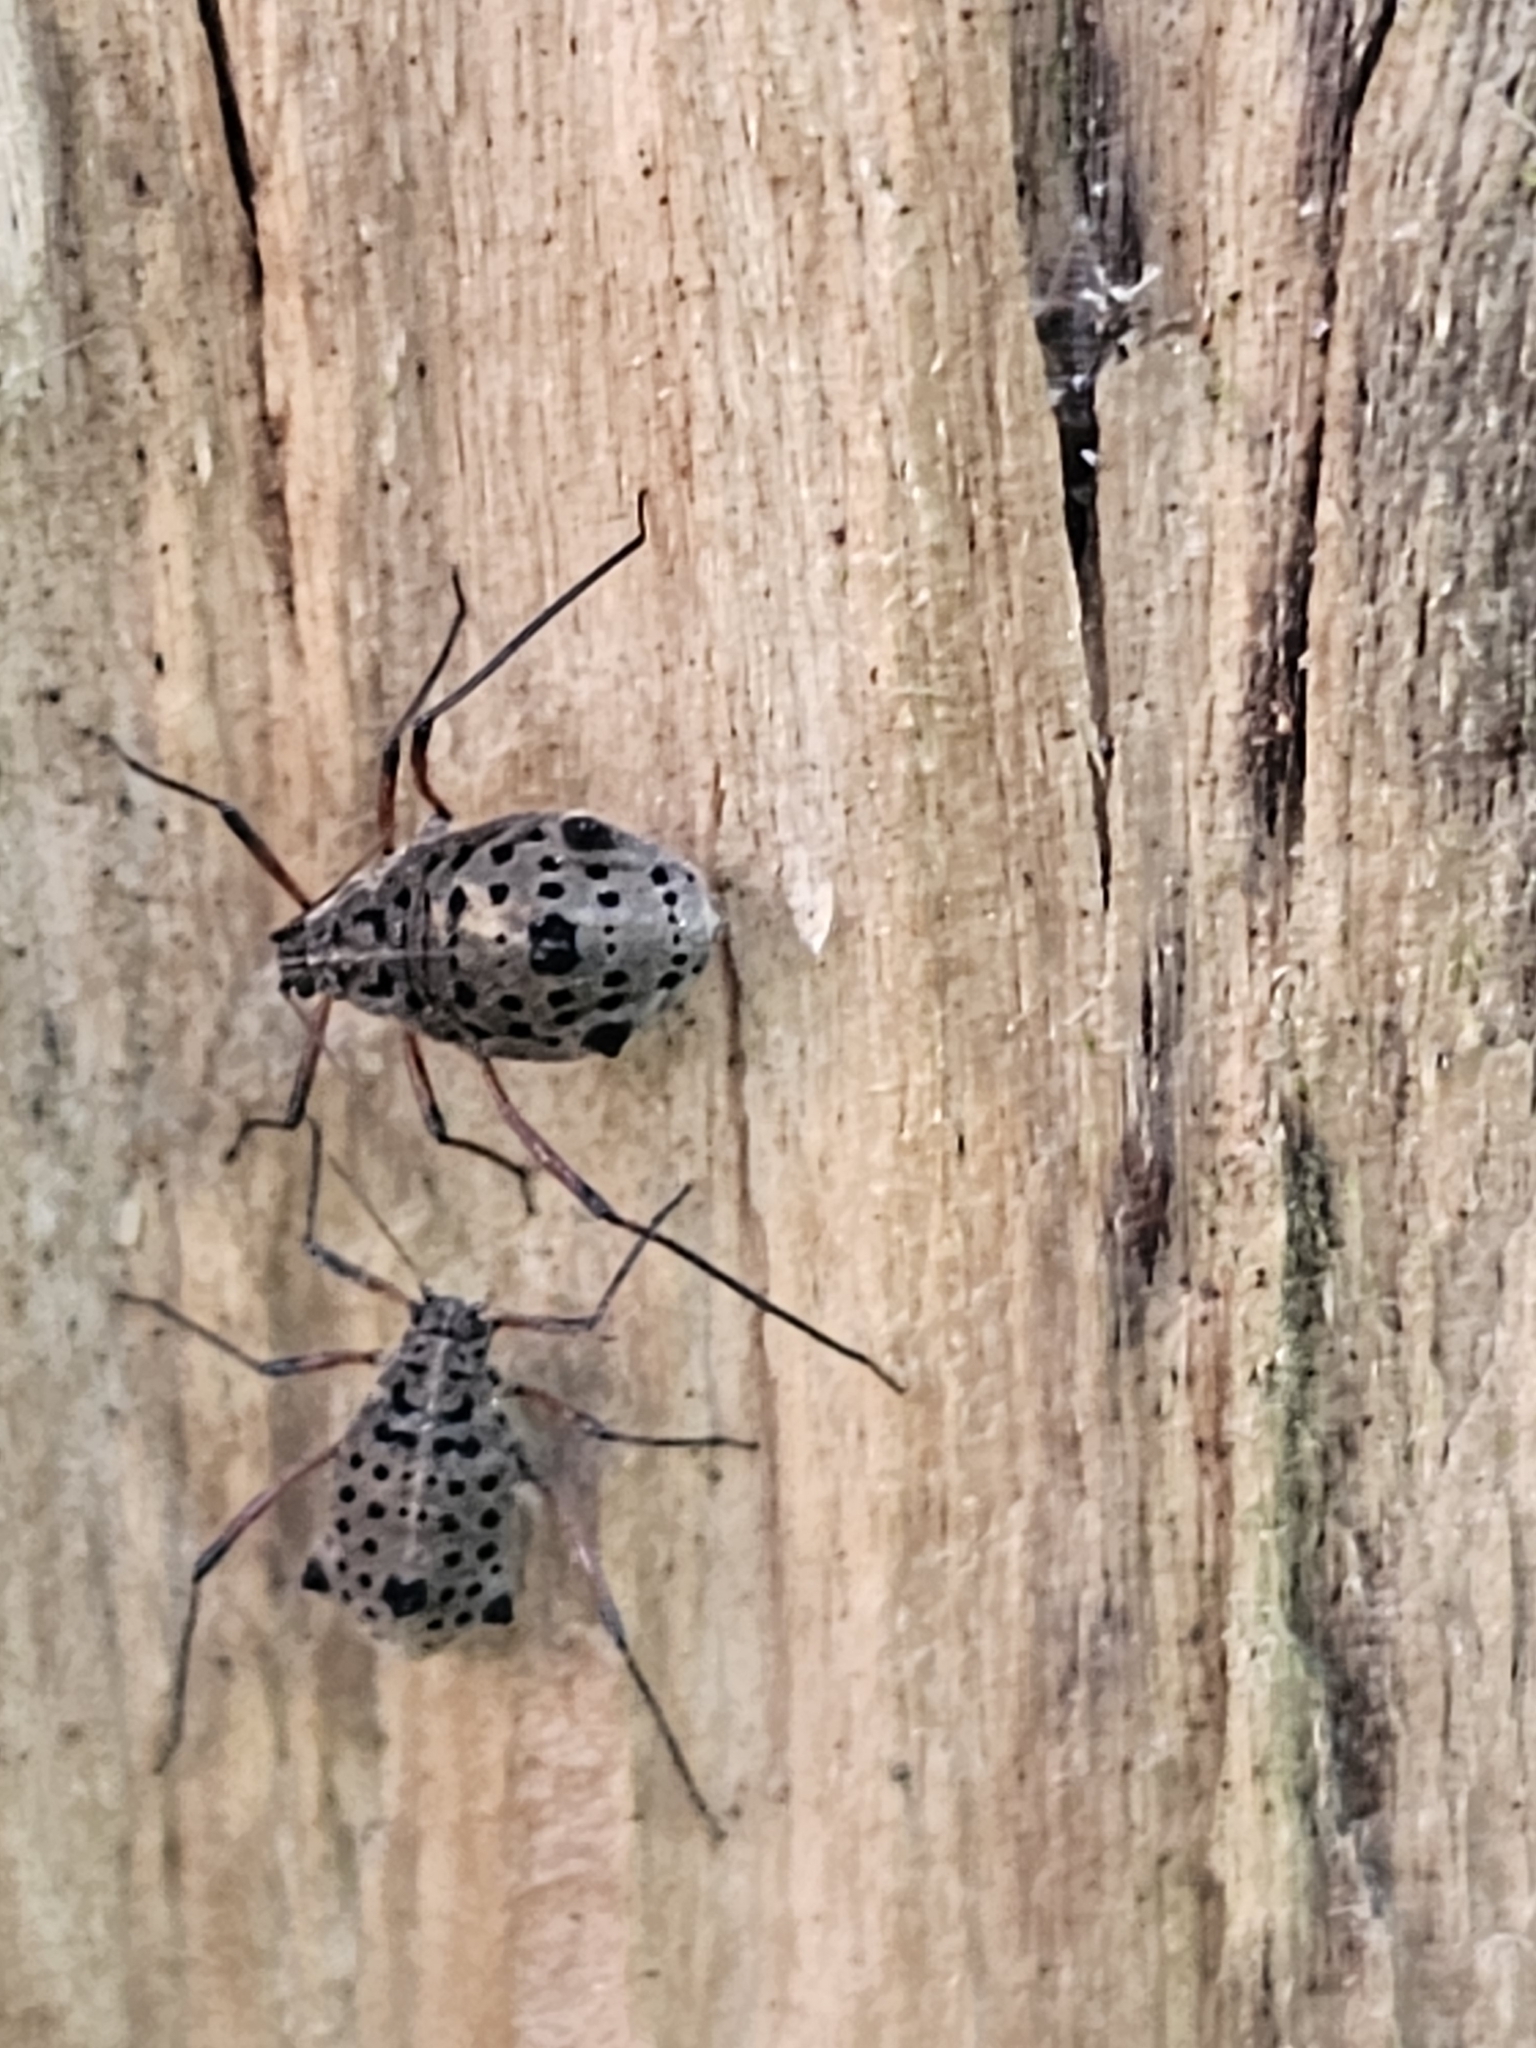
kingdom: Animalia
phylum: Arthropoda
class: Insecta
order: Hemiptera
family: Aphididae
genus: Tuberolachnus
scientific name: Tuberolachnus salignus
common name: Giant willow aphid
